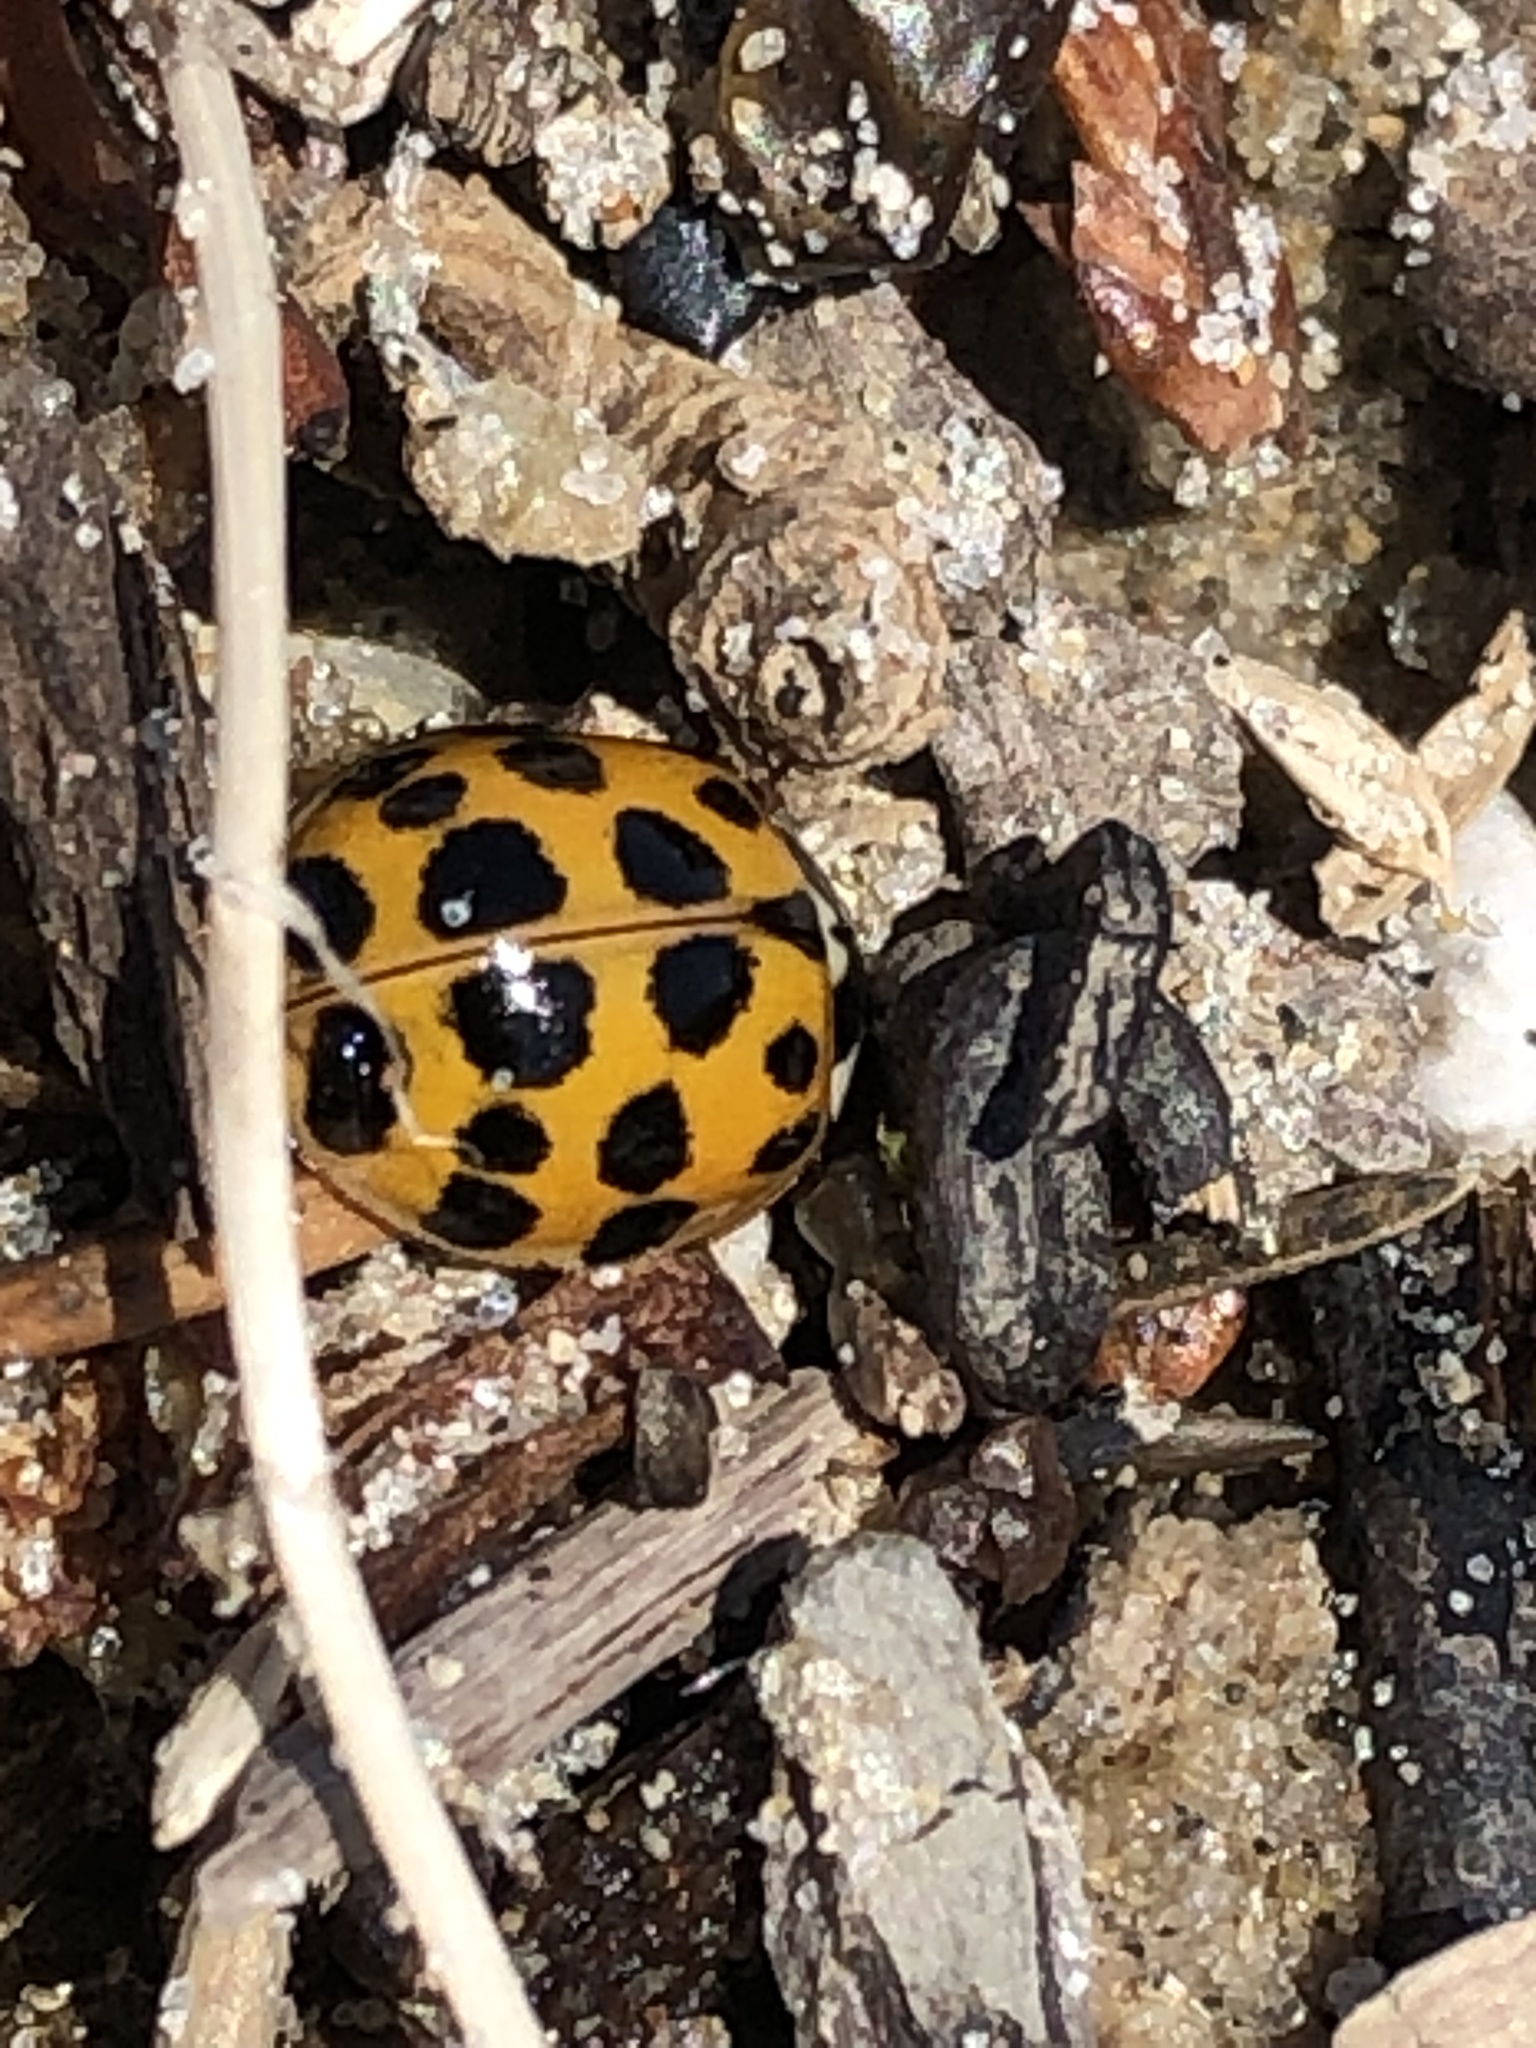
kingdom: Animalia
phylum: Arthropoda
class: Insecta
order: Coleoptera
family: Coccinellidae
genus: Harmonia
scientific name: Harmonia axyridis
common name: Harlequin ladybird
